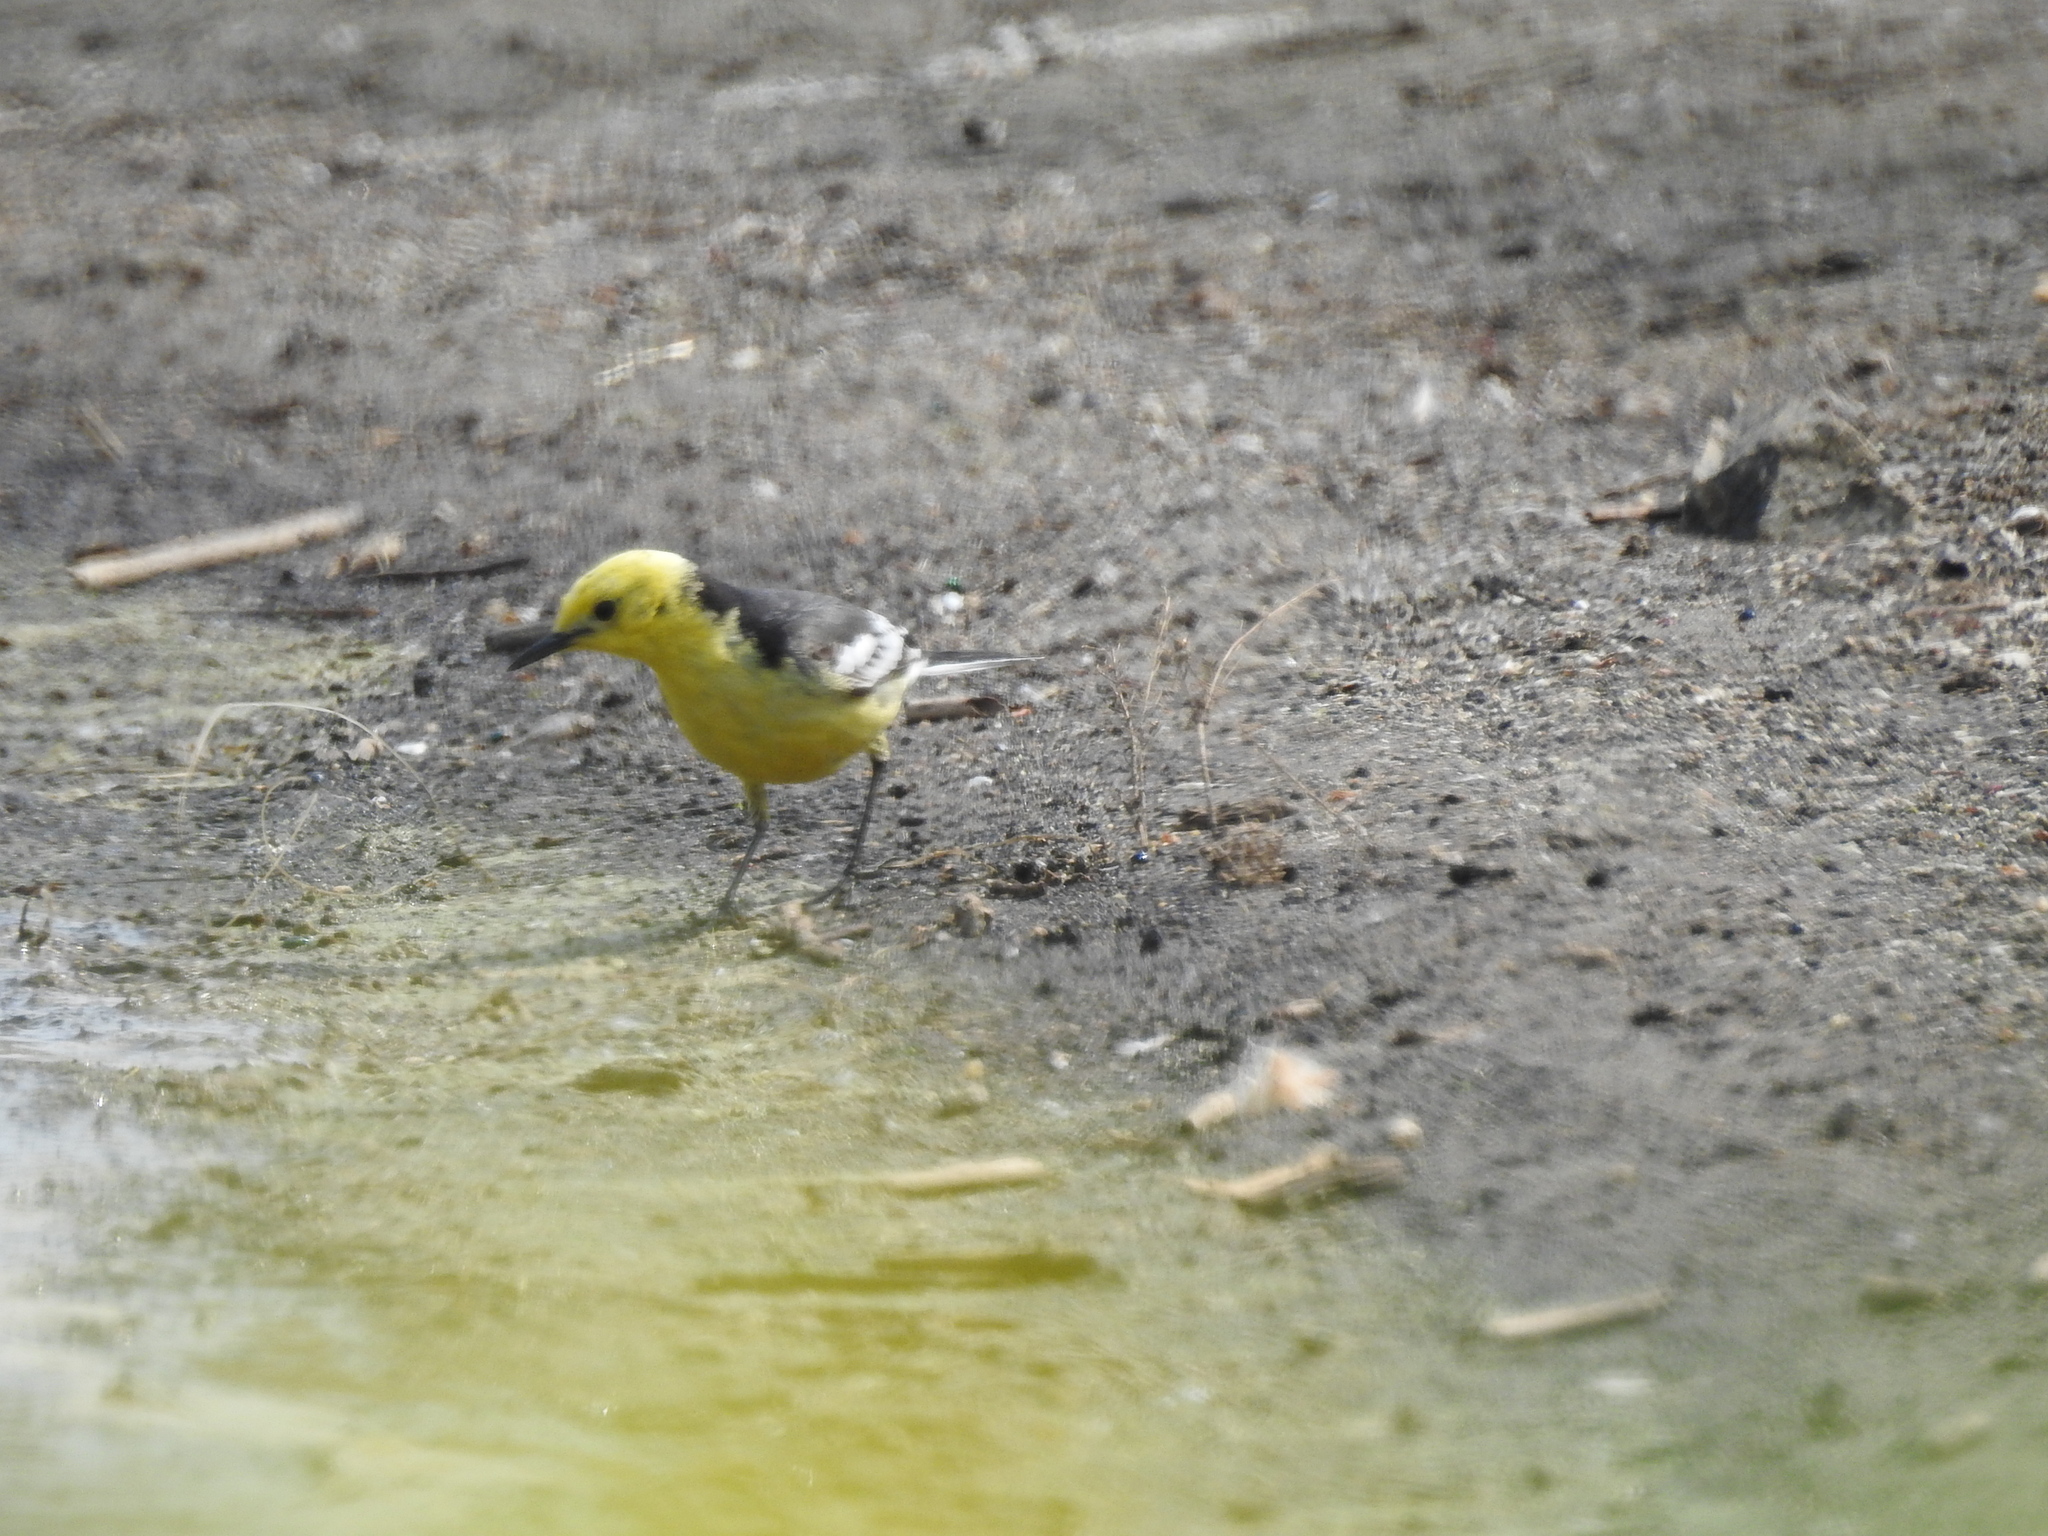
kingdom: Animalia
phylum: Chordata
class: Aves
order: Passeriformes
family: Motacillidae
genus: Motacilla
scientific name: Motacilla citreola
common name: Citrine wagtail
